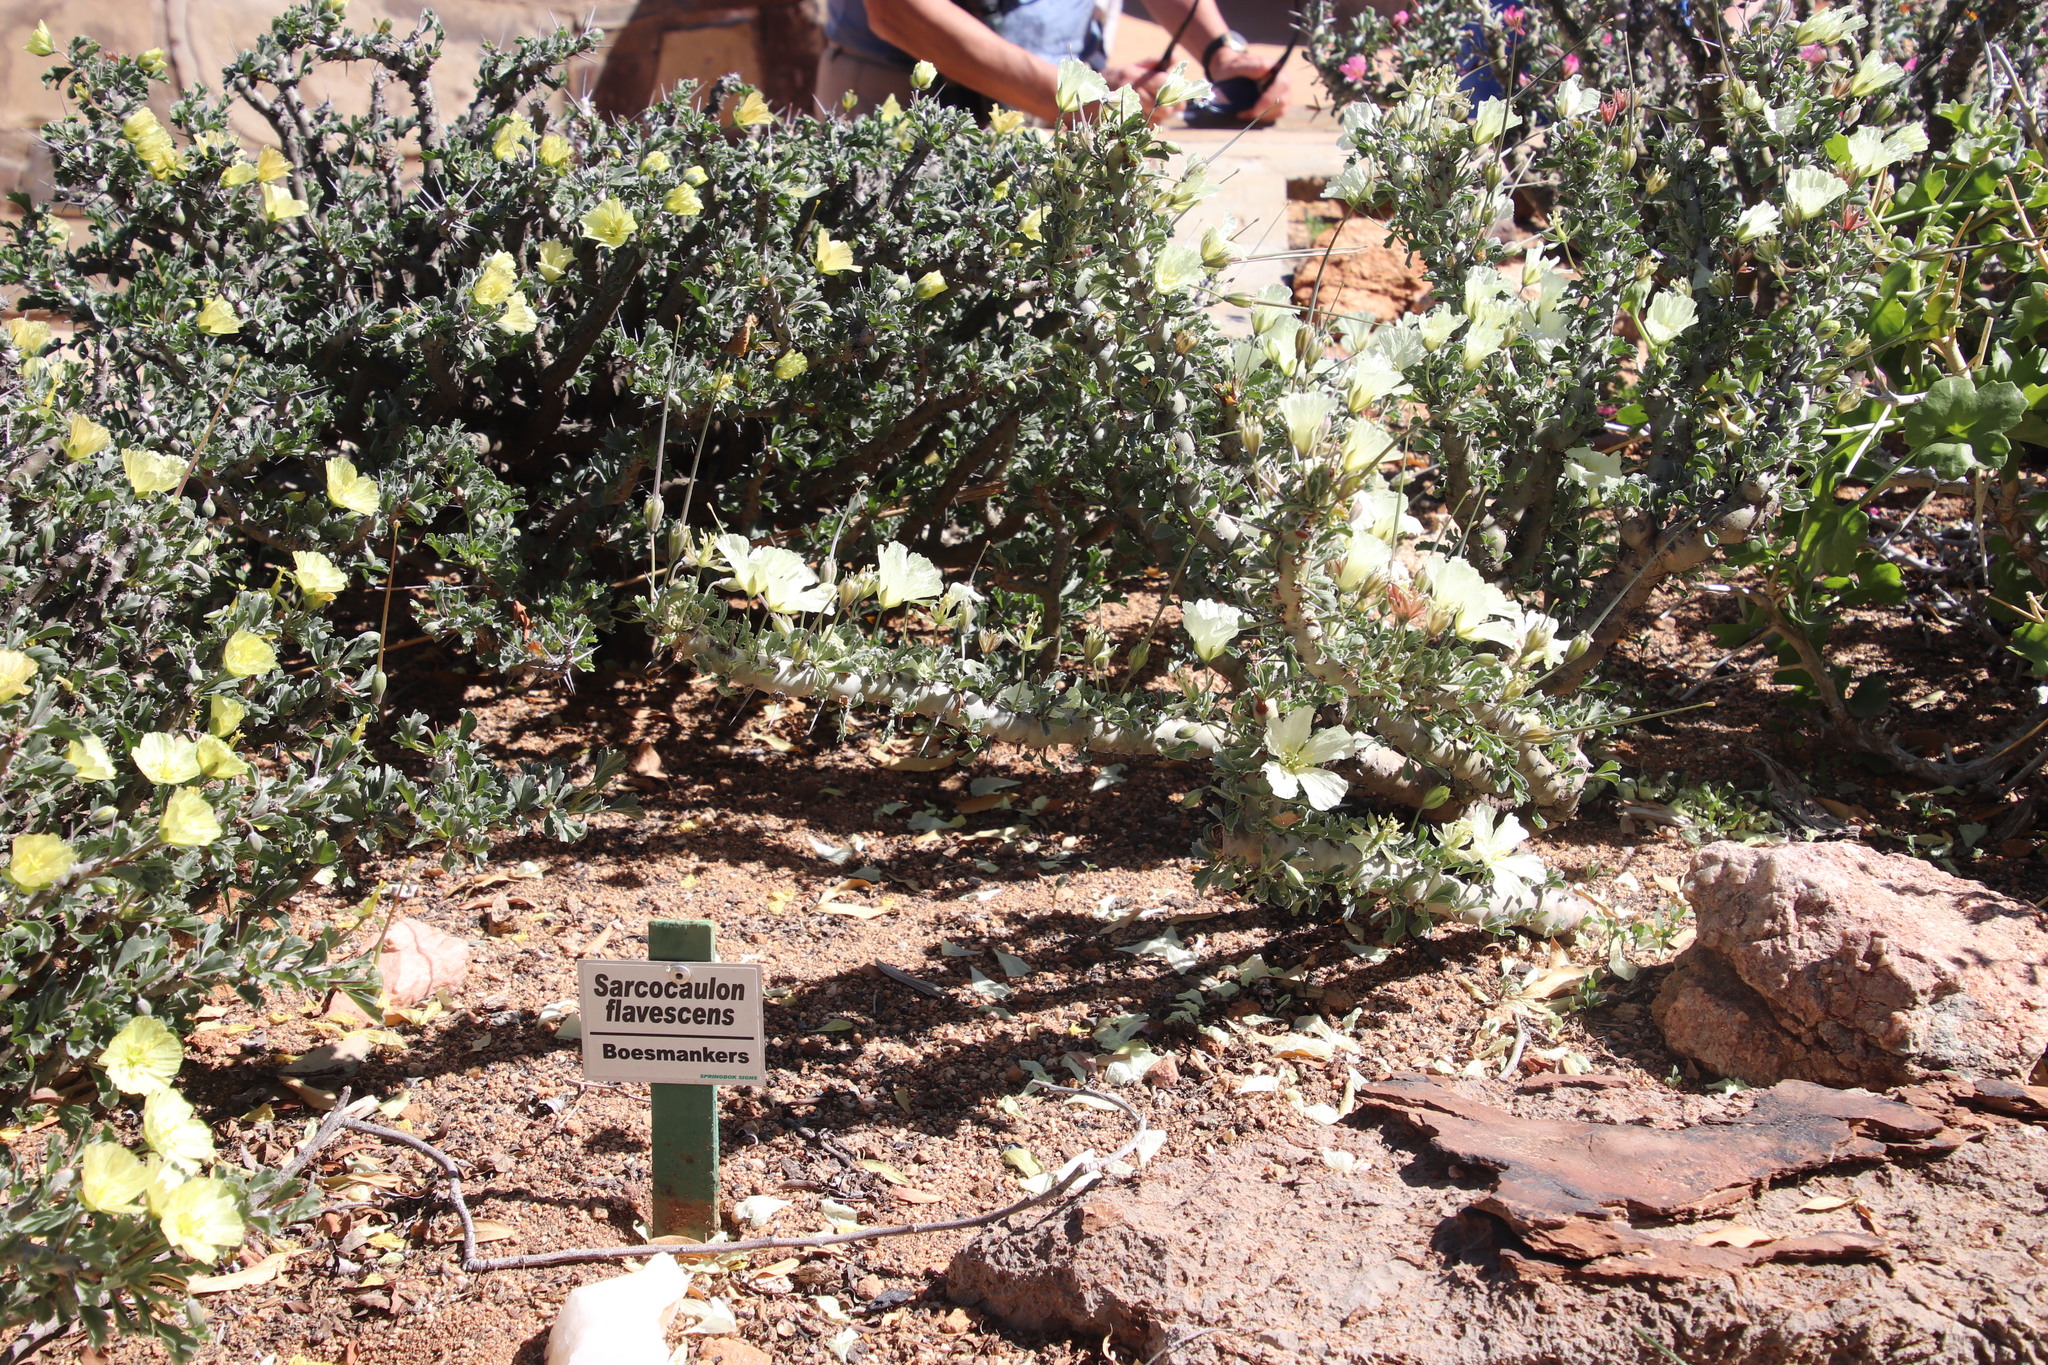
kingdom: Plantae
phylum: Tracheophyta
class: Magnoliopsida
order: Geraniales
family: Geraniaceae
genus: Monsonia
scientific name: Monsonia crassicaulis
